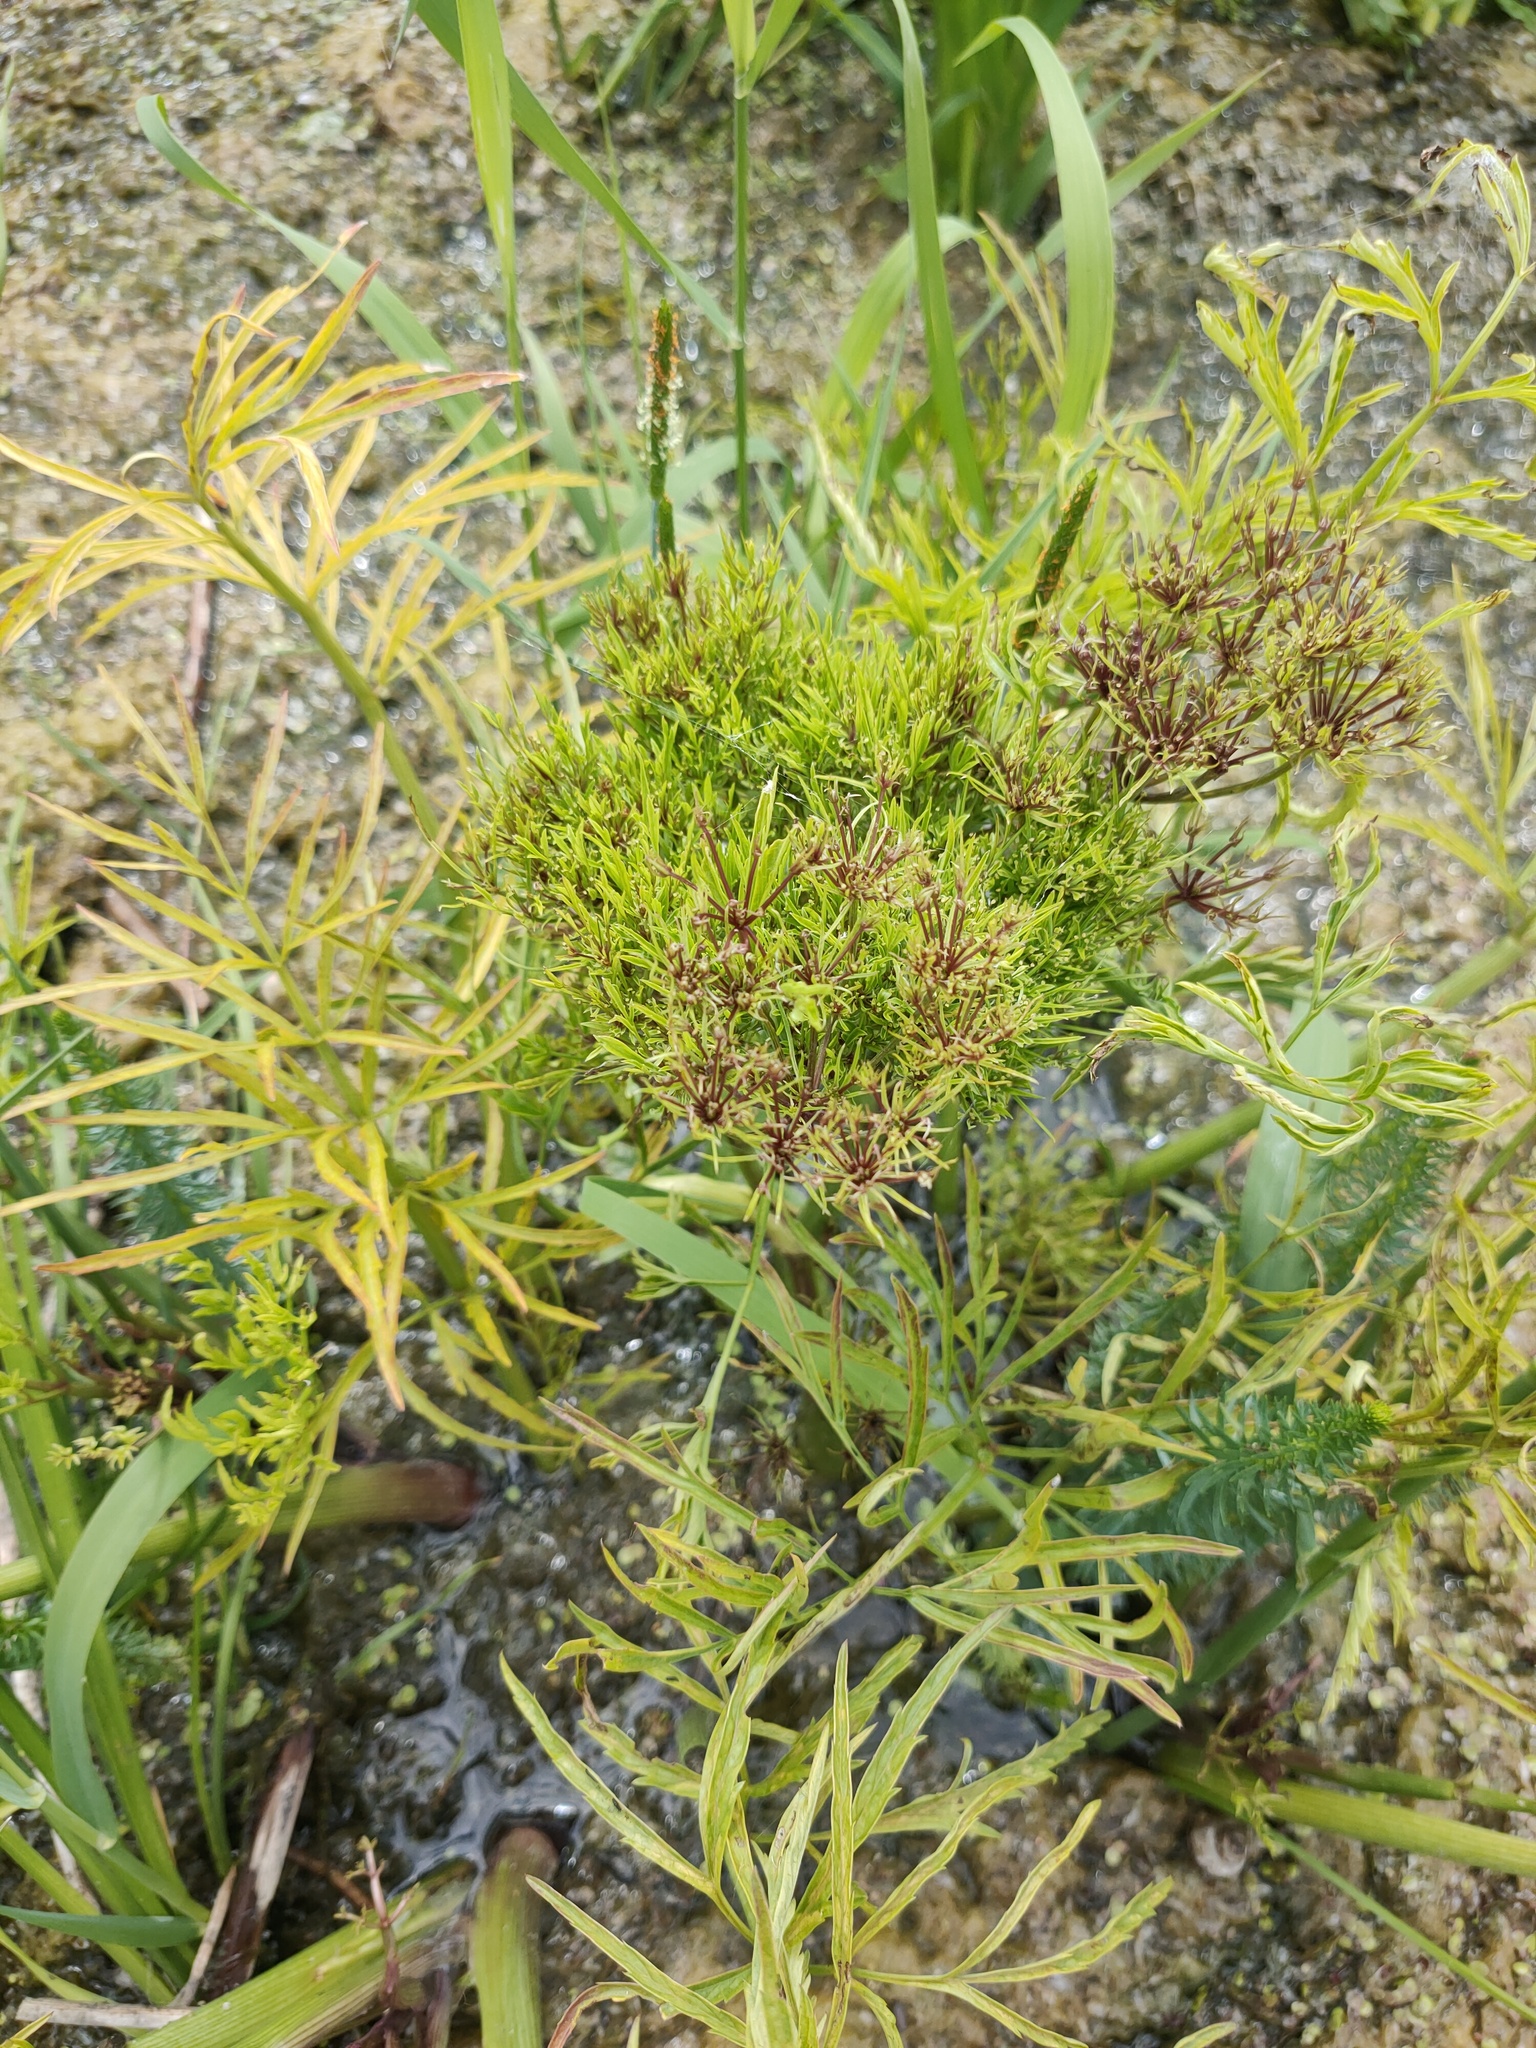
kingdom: Plantae
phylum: Tracheophyta
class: Magnoliopsida
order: Apiales
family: Apiaceae
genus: Cicuta
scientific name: Cicuta virosa
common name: Cowbane
